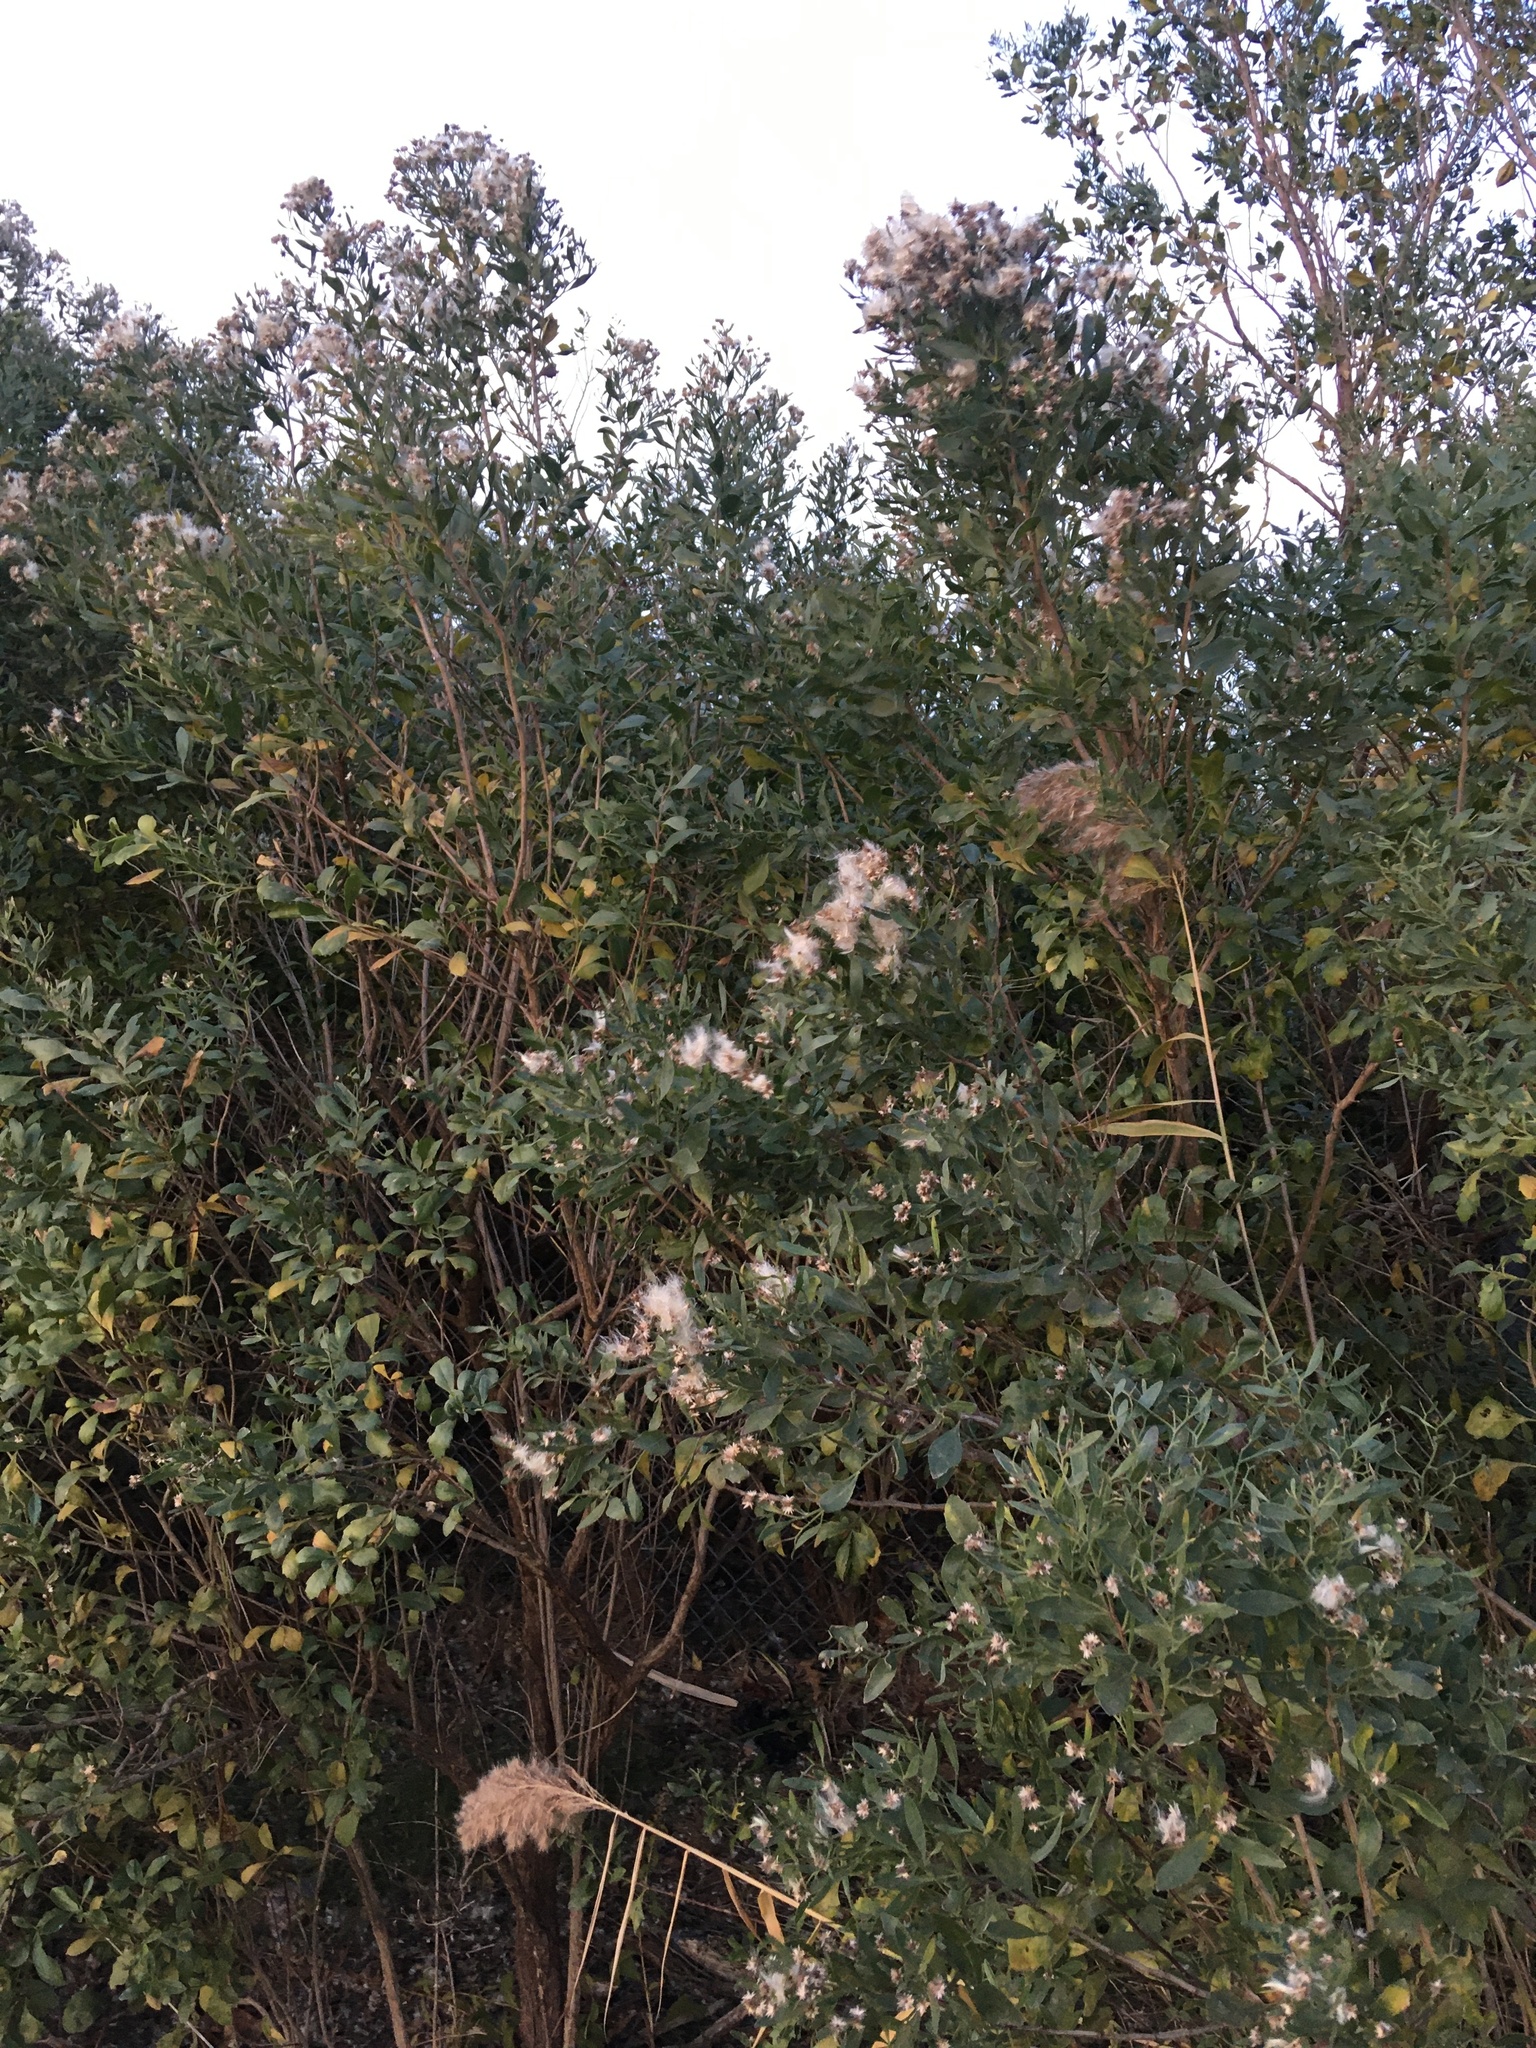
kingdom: Plantae
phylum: Tracheophyta
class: Magnoliopsida
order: Asterales
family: Asteraceae
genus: Baccharis
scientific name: Baccharis halimifolia
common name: Eastern baccharis
